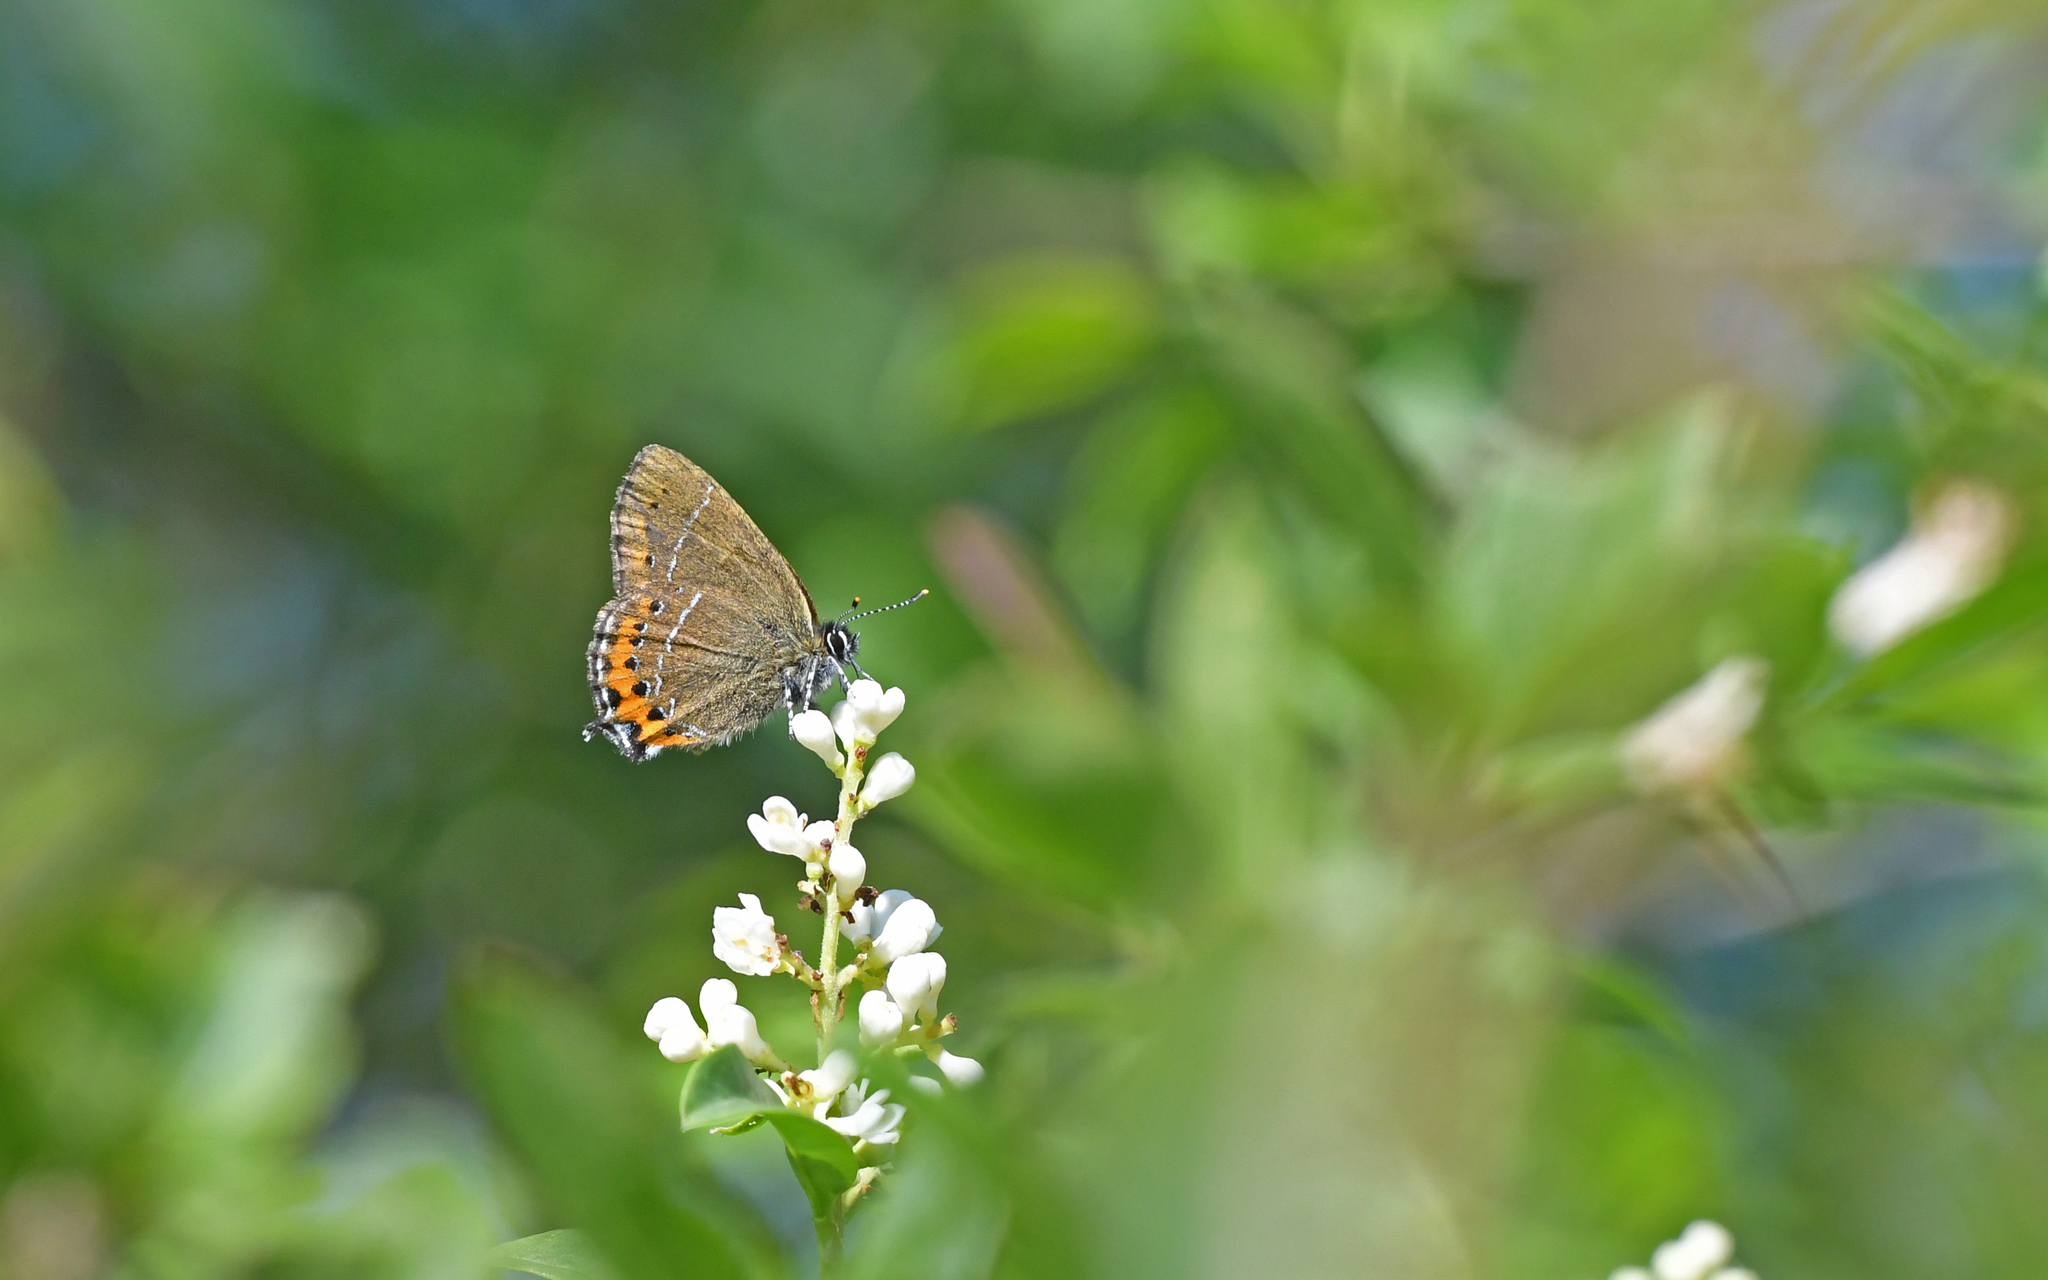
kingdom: Animalia
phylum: Arthropoda
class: Insecta
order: Lepidoptera
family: Lycaenidae
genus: Fixsenia
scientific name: Fixsenia pruni
